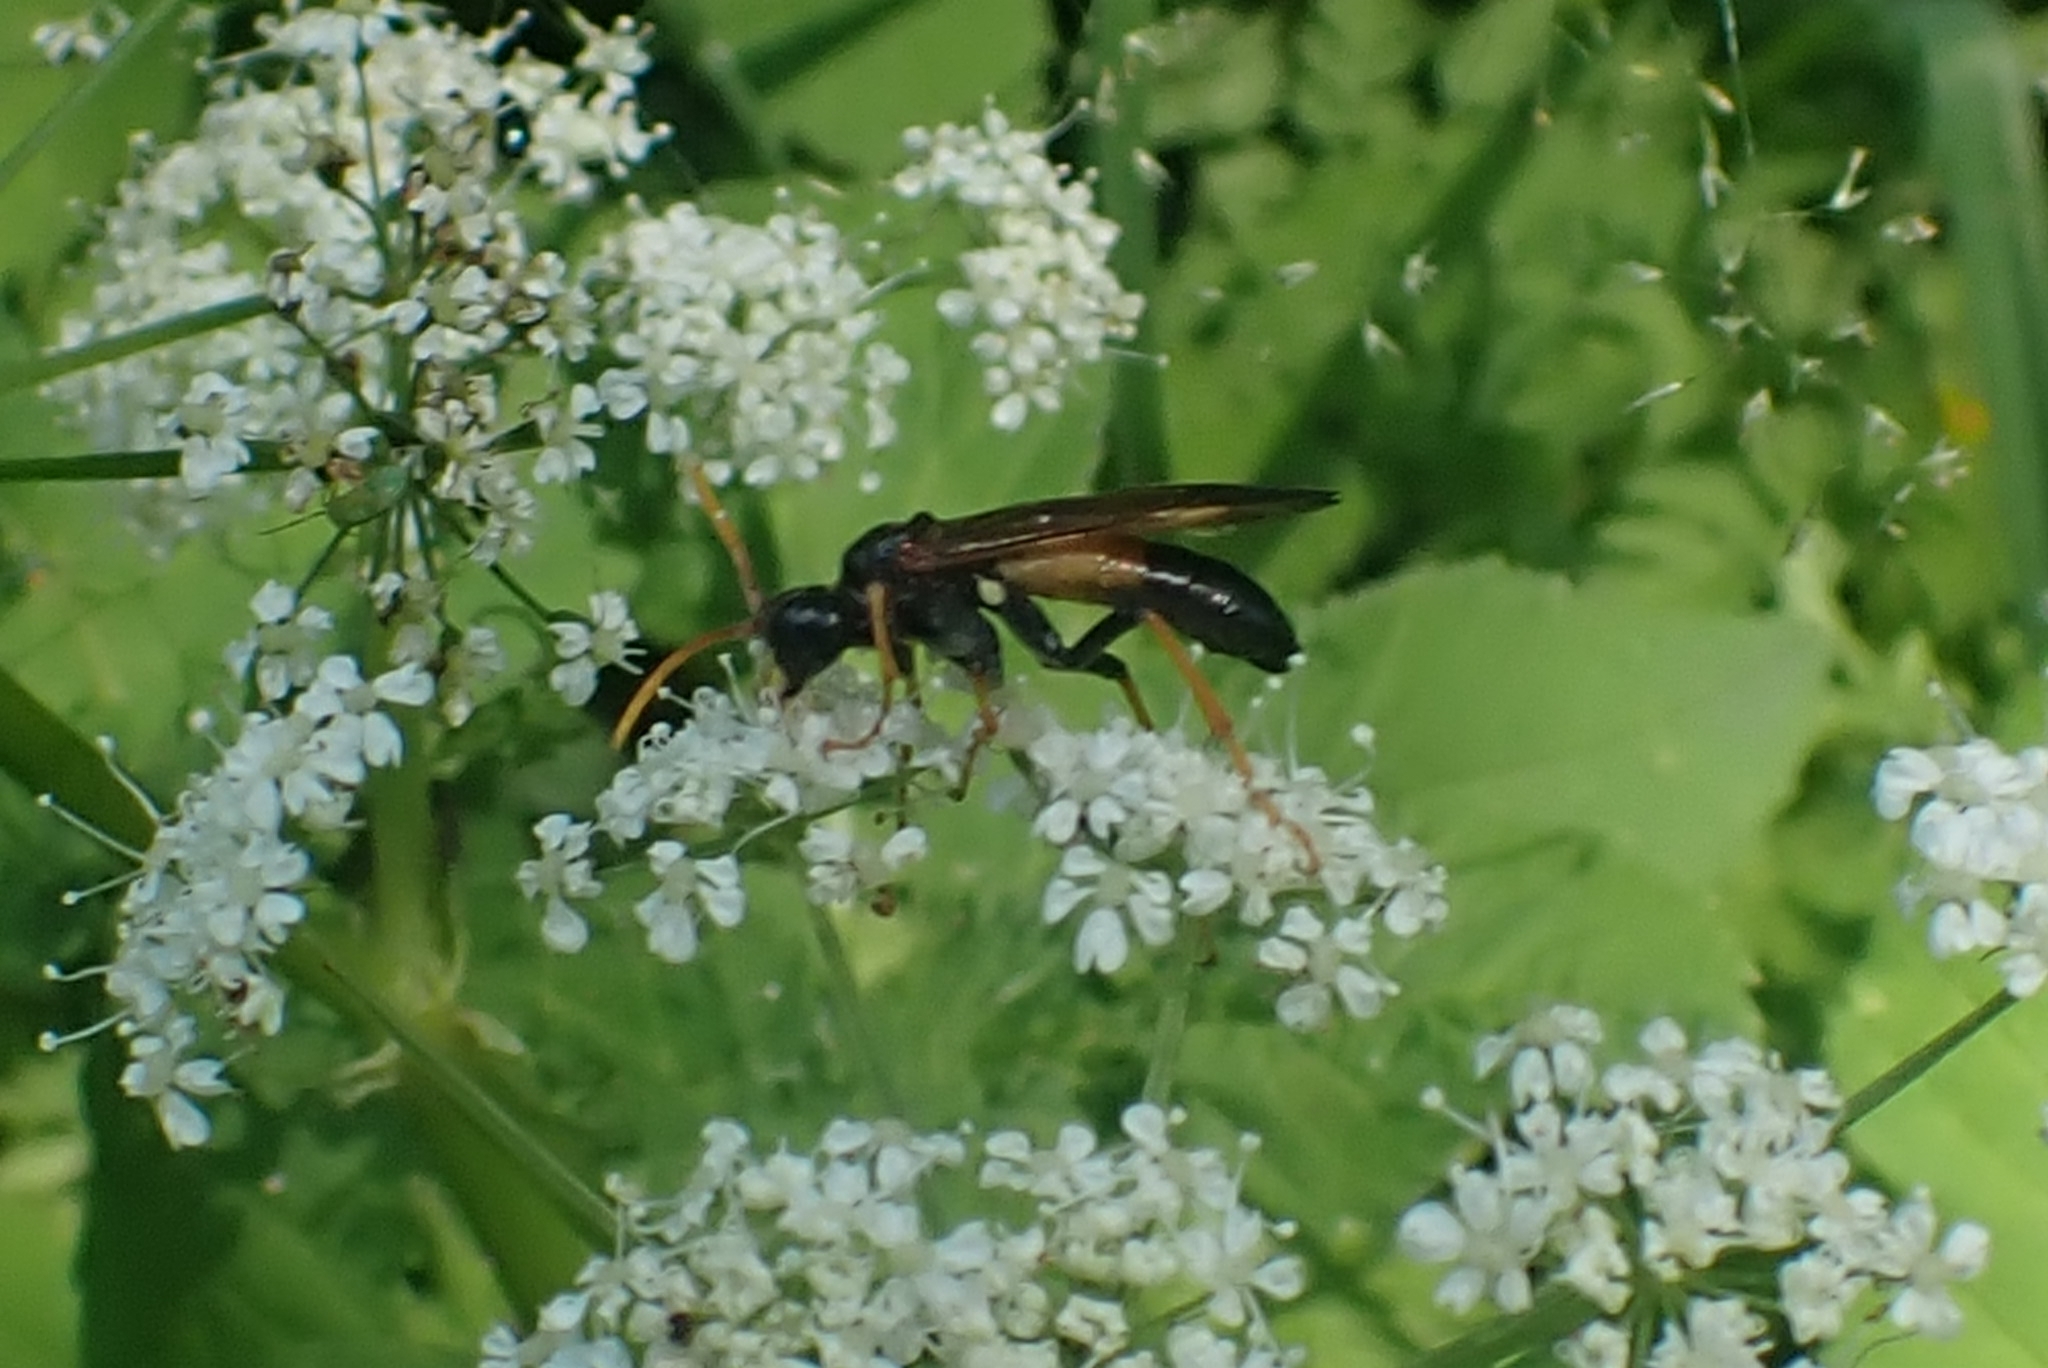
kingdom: Animalia
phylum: Arthropoda
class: Insecta
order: Hymenoptera
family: Tenthredinidae
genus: Tenthredo
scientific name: Tenthredo campestris
